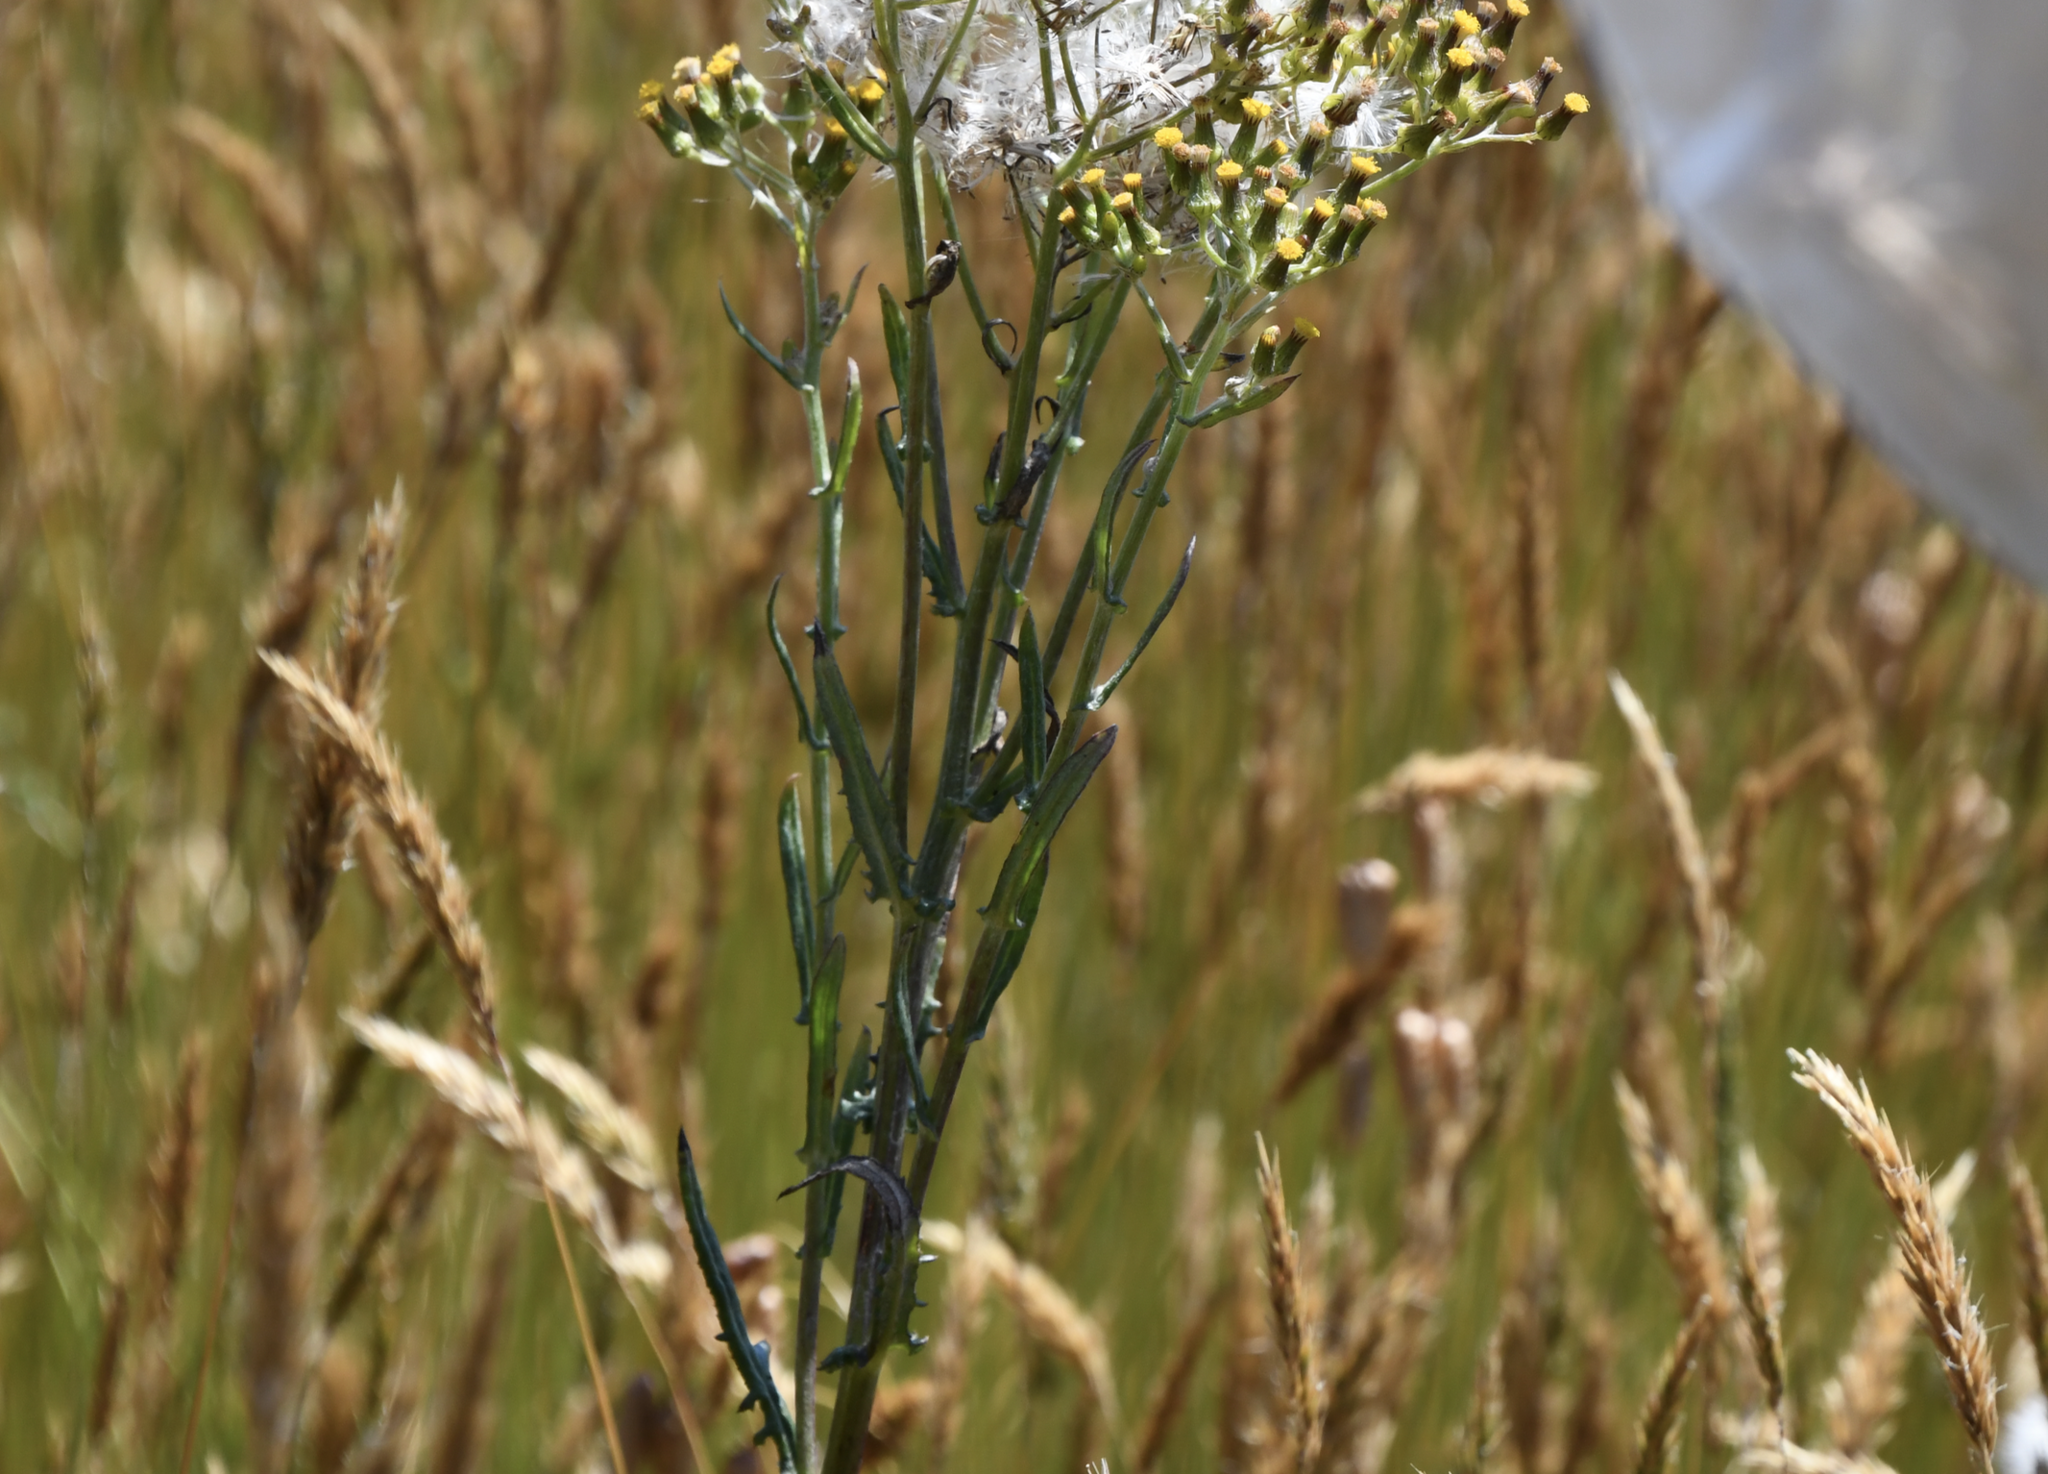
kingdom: Plantae
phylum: Tracheophyta
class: Magnoliopsida
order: Asterales
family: Asteraceae
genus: Senecio
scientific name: Senecio glomeratus
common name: Cutleaf burnweed
